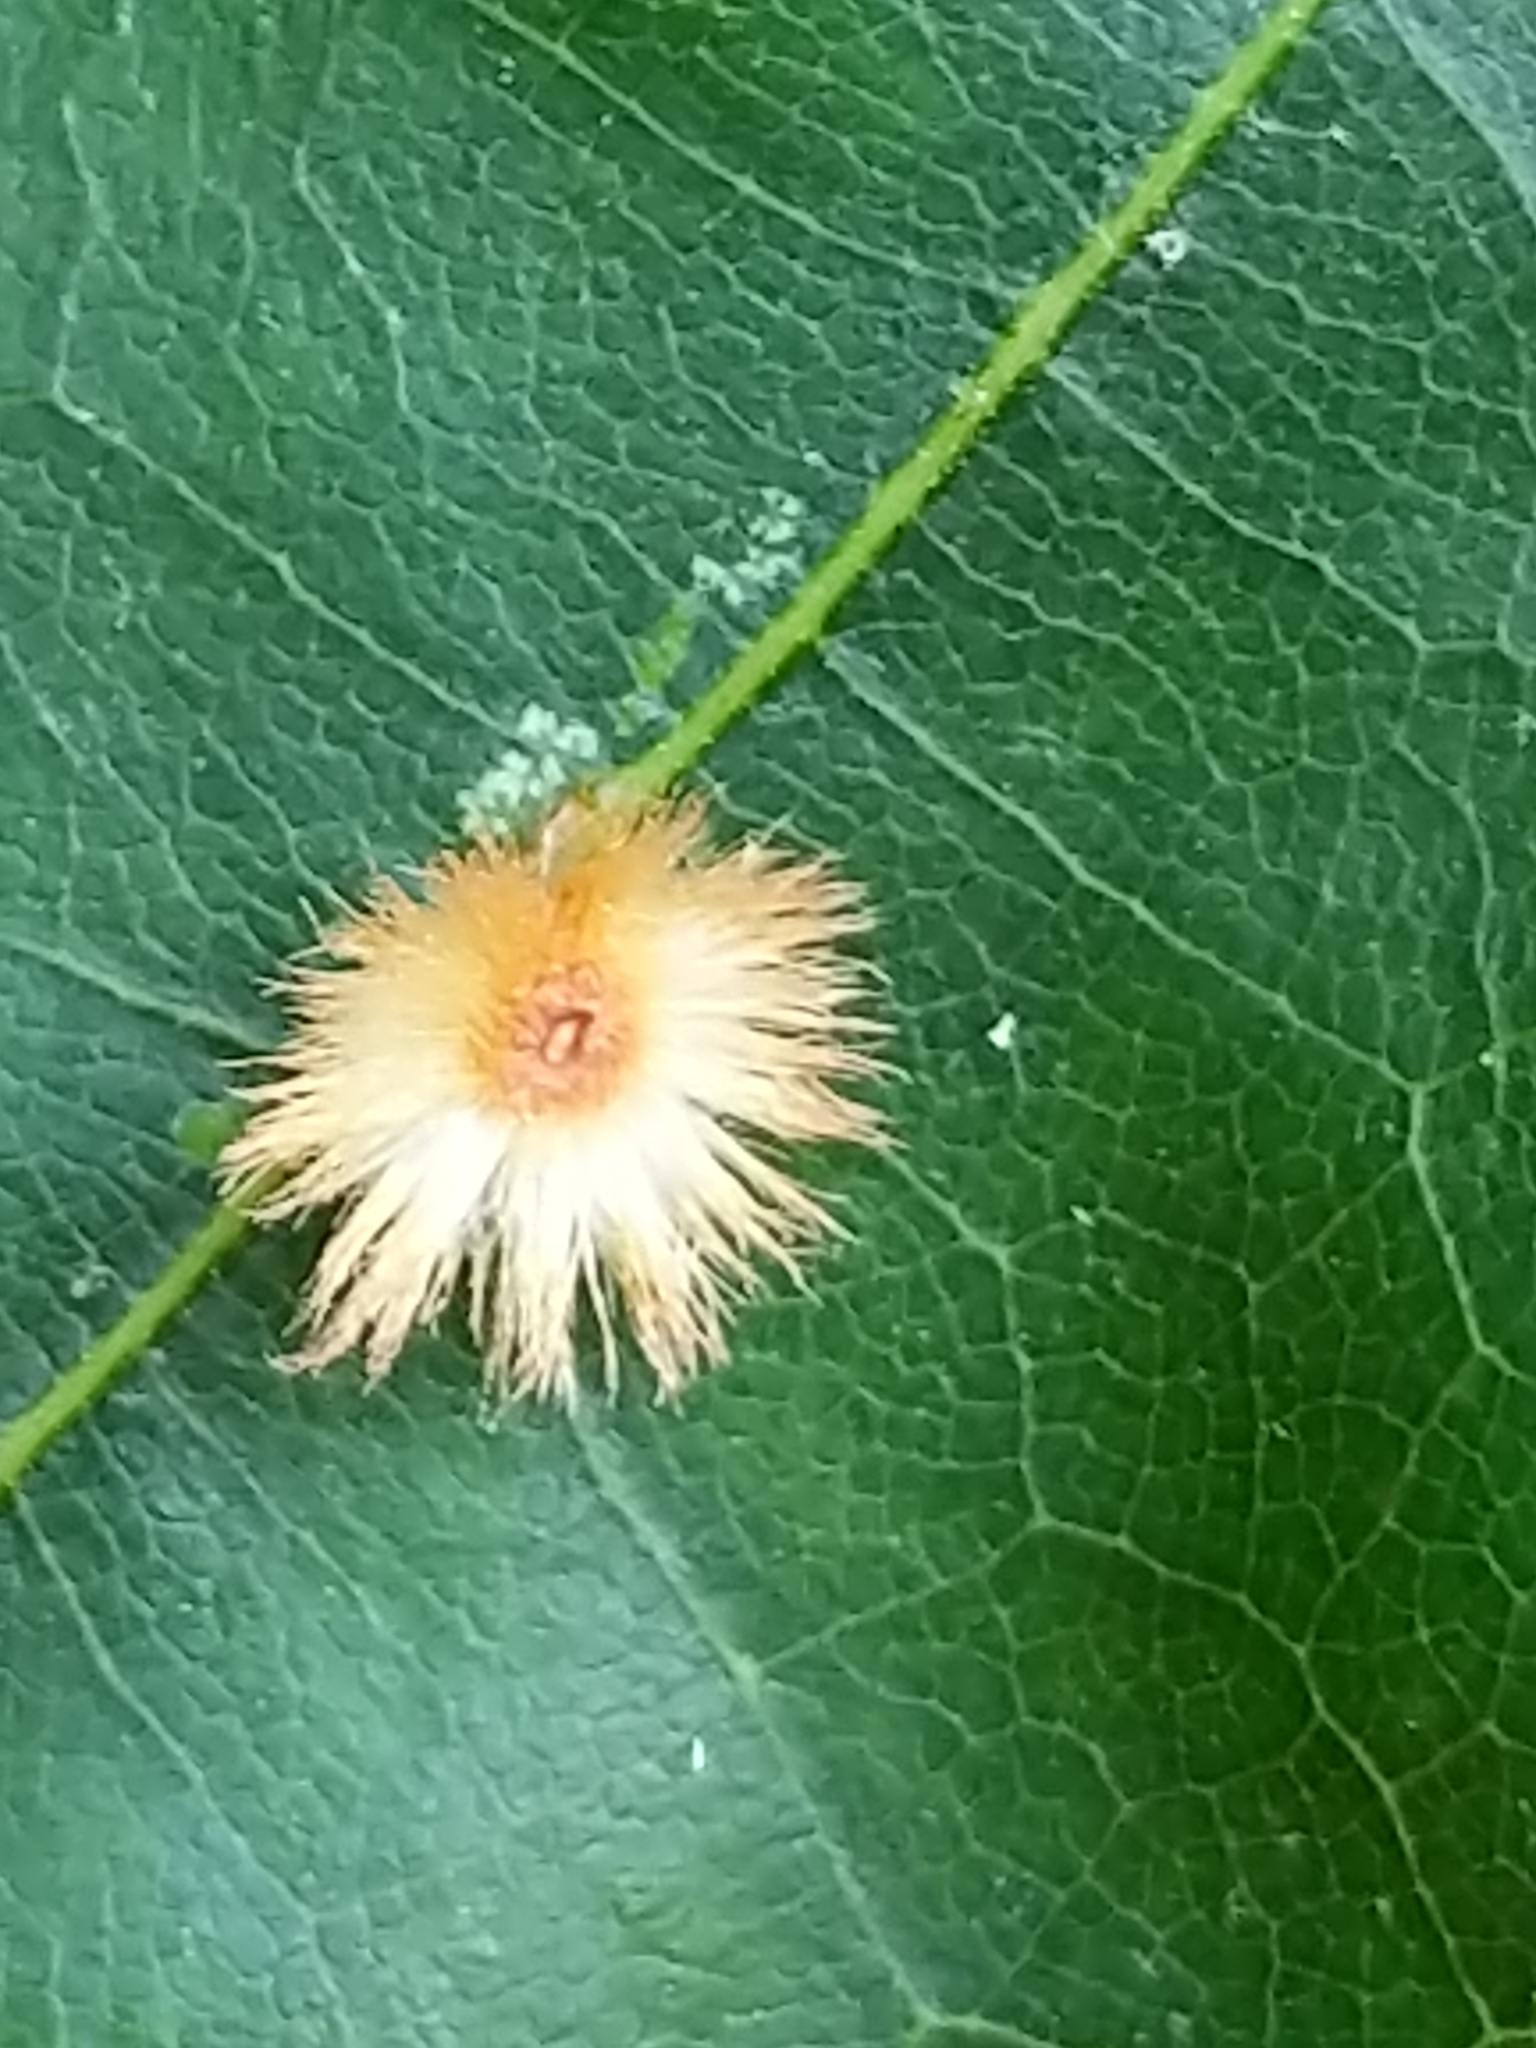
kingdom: Animalia
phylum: Arthropoda
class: Insecta
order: Hymenoptera
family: Cynipidae
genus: Callirhytis
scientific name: Callirhytis
